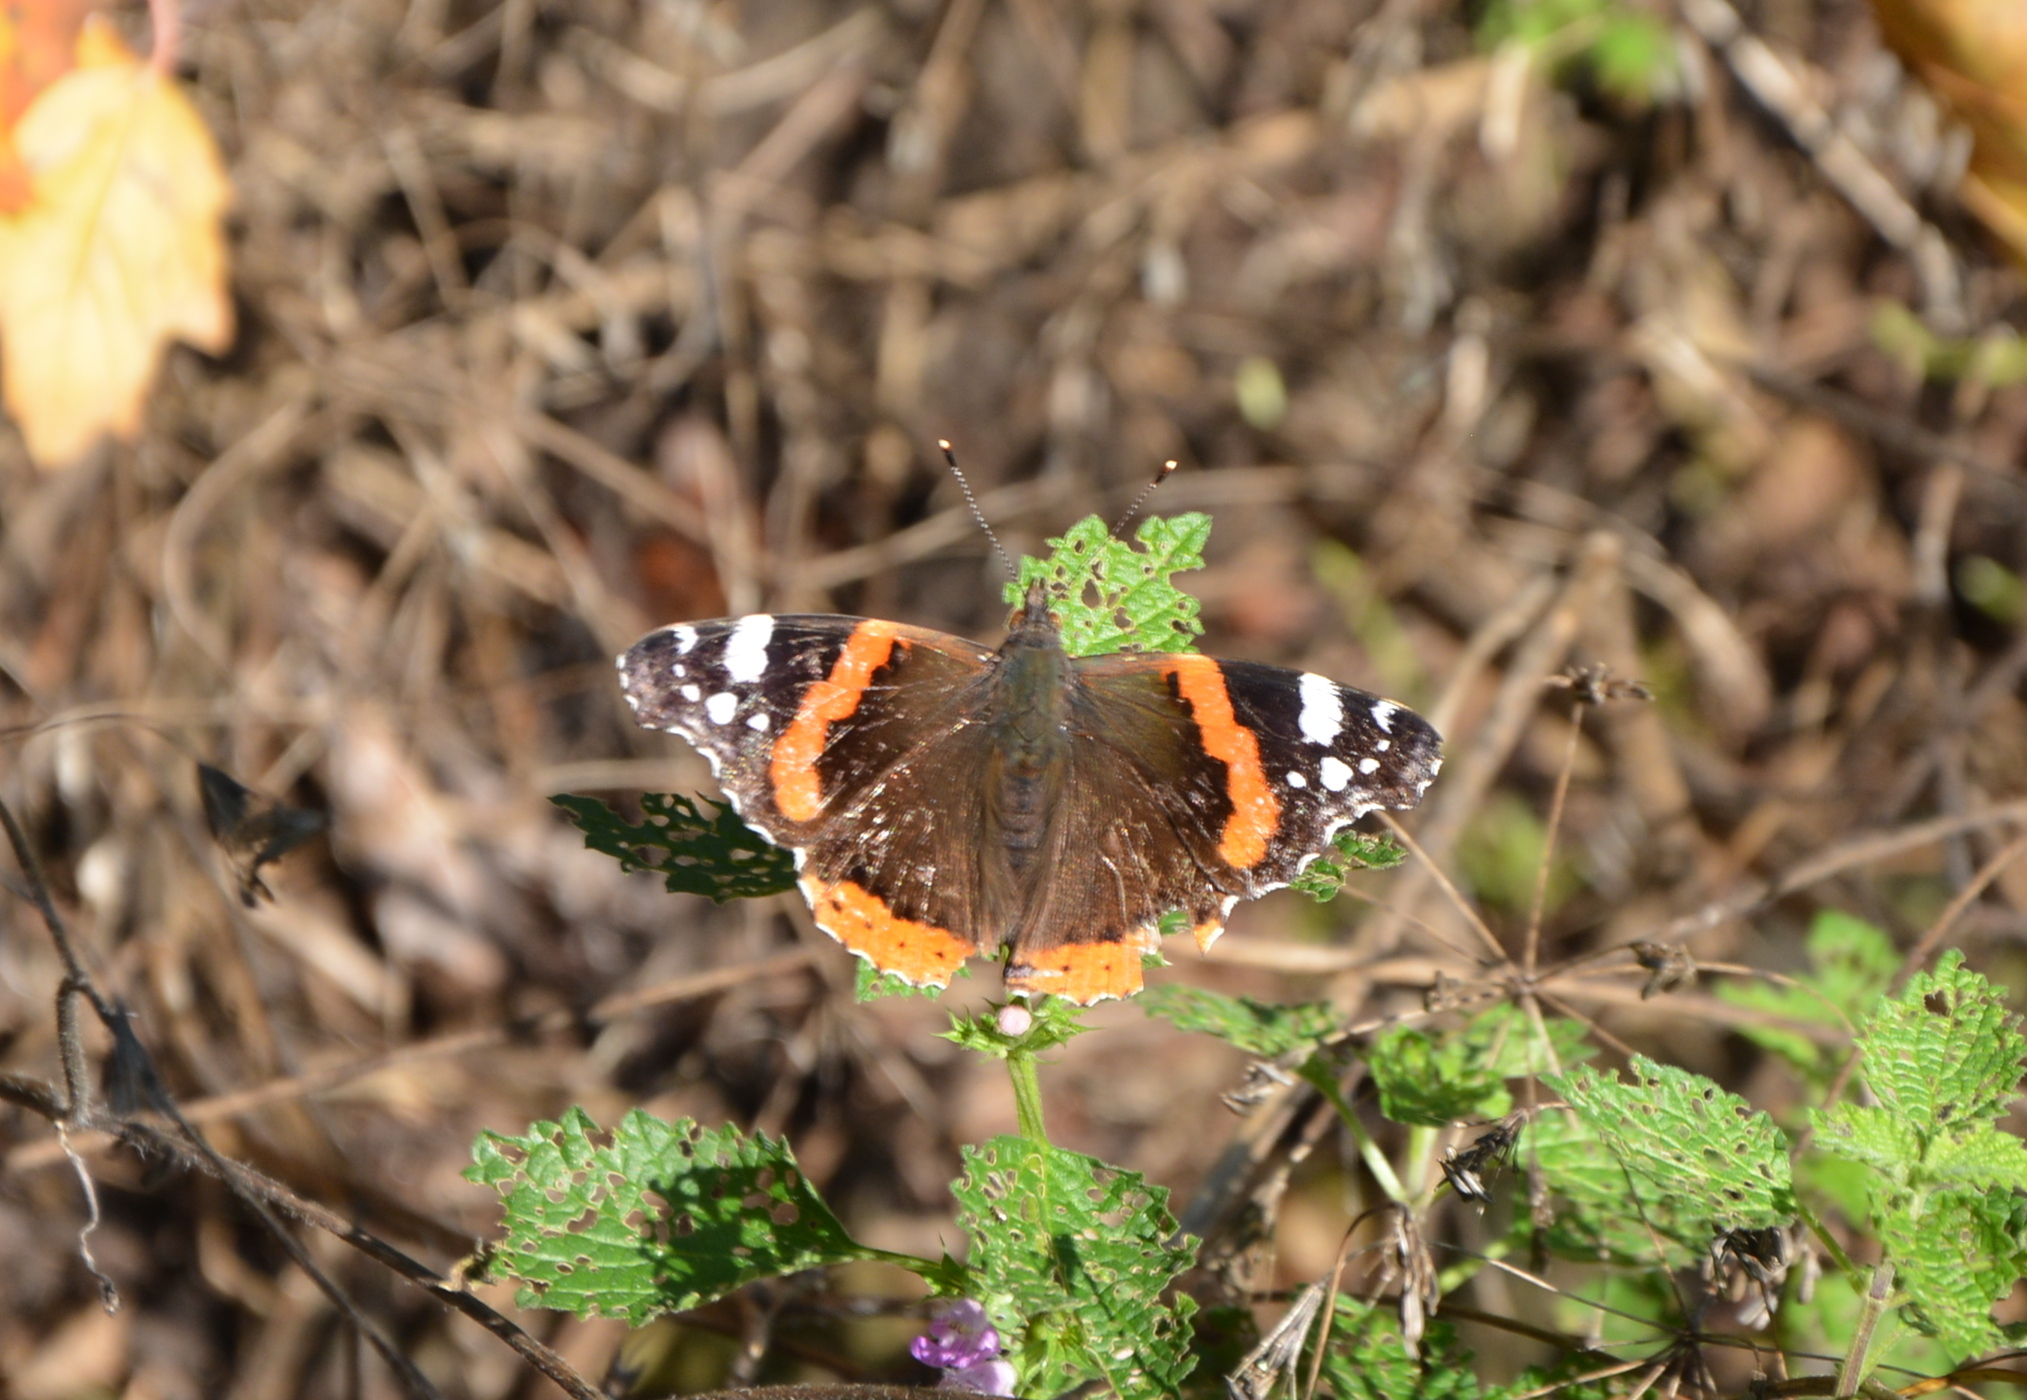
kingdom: Animalia
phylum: Arthropoda
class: Insecta
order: Lepidoptera
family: Nymphalidae
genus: Vanessa
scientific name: Vanessa atalanta
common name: Red admiral
